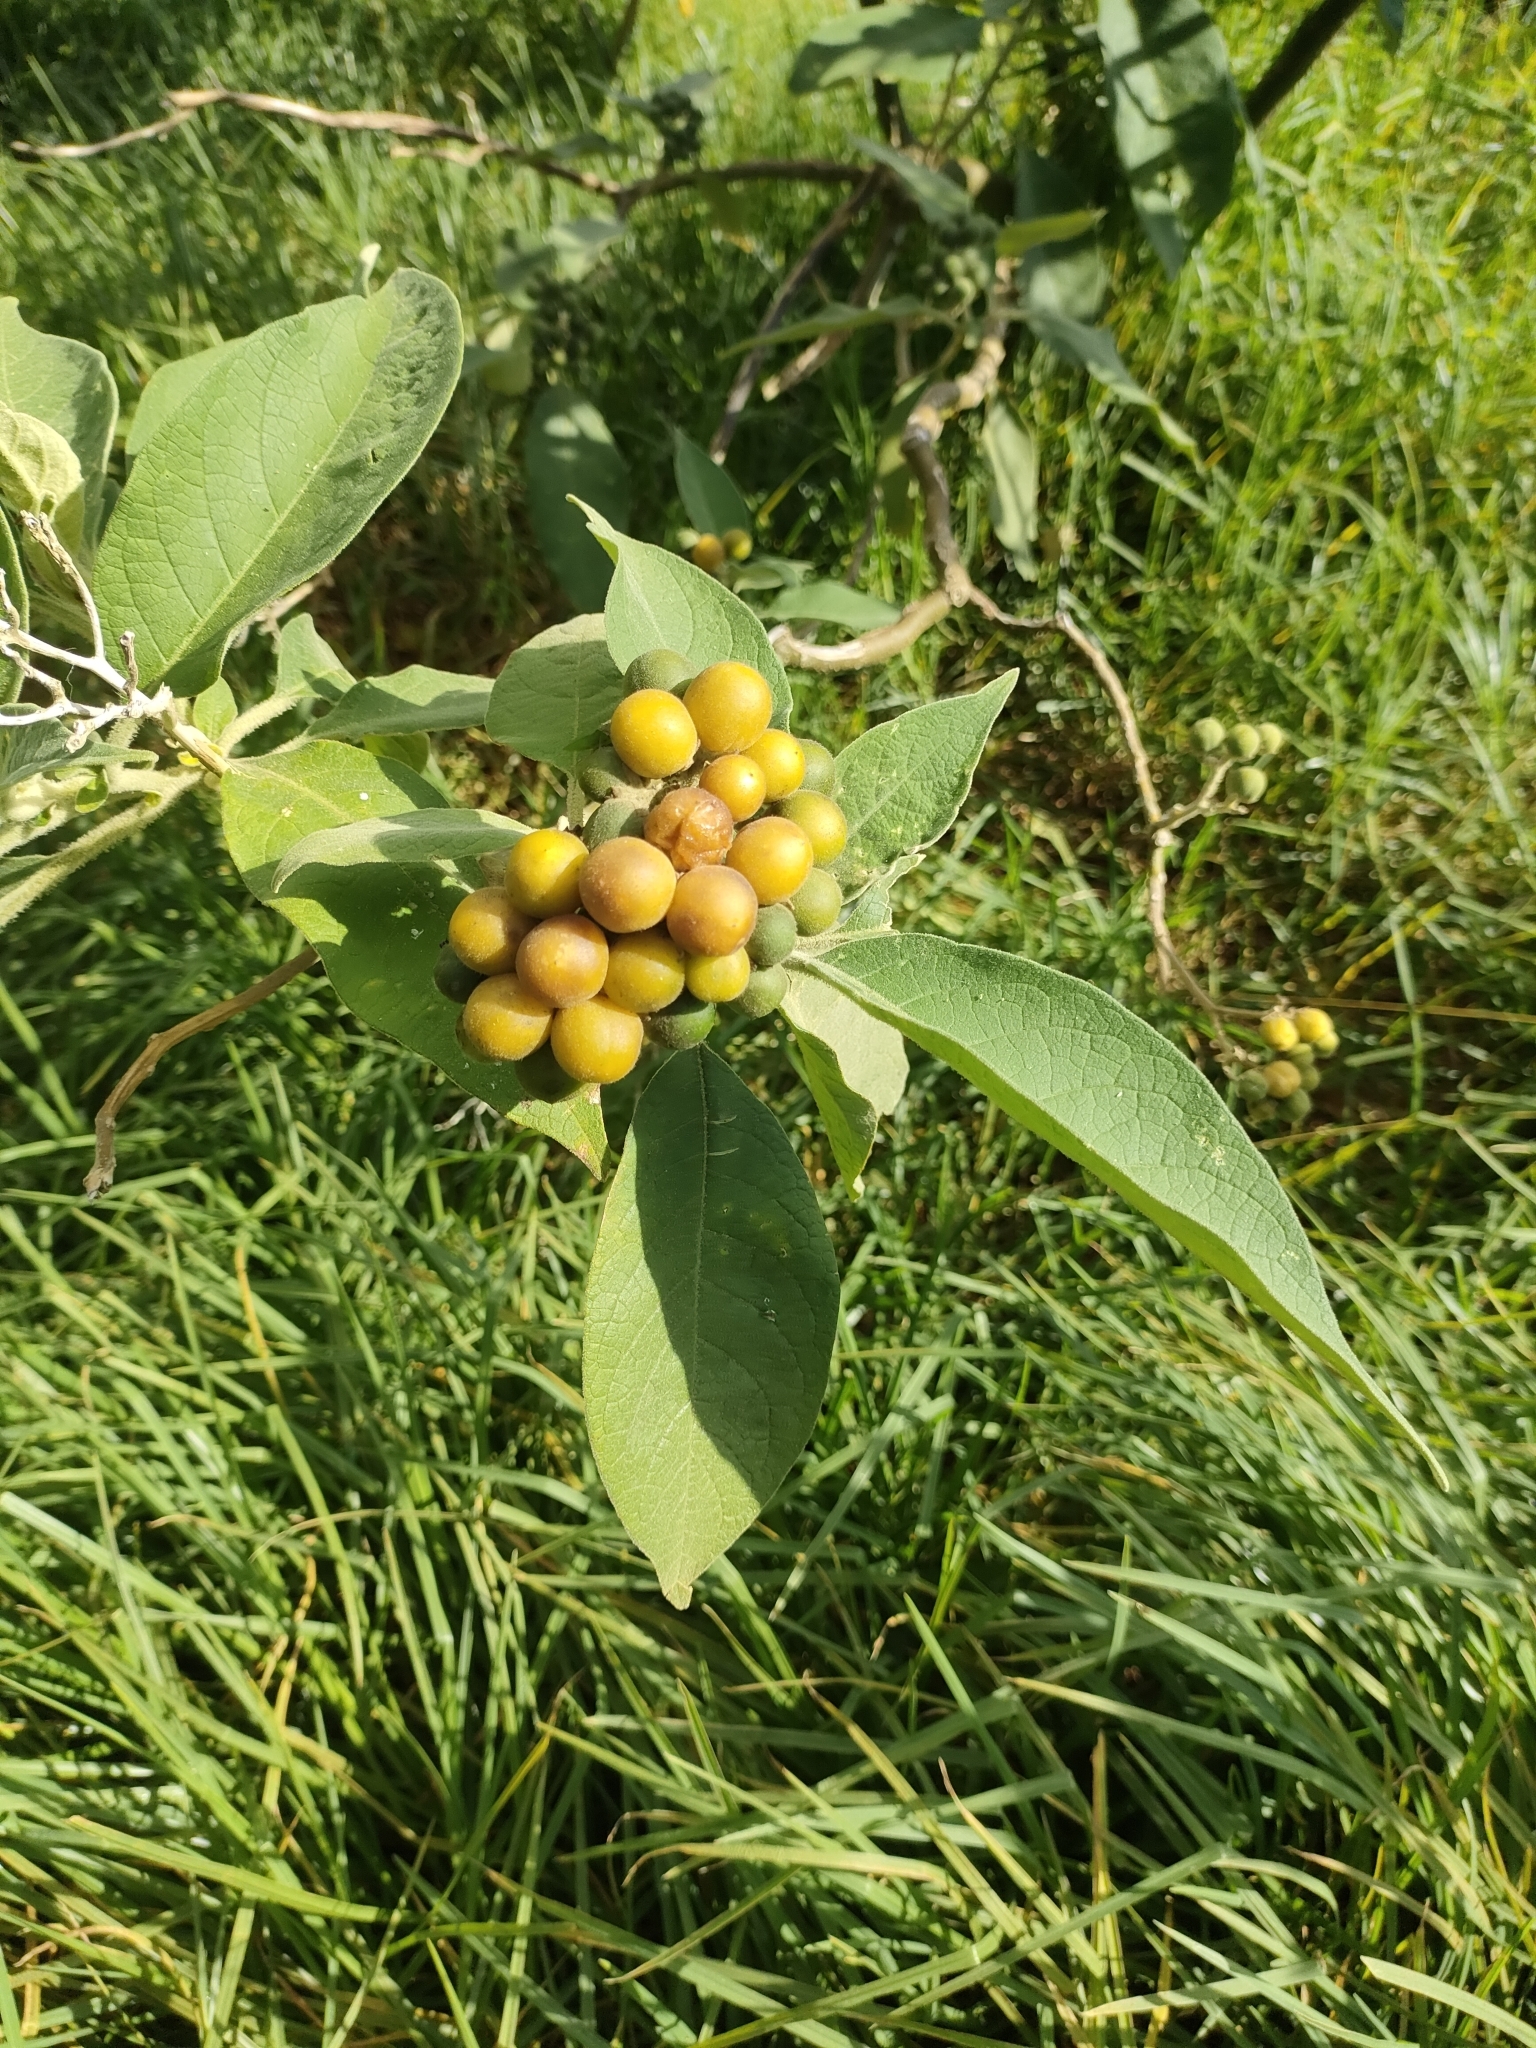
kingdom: Plantae
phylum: Tracheophyta
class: Magnoliopsida
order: Solanales
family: Solanaceae
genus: Solanum
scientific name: Solanum mauritianum
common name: Earleaf nightshade
